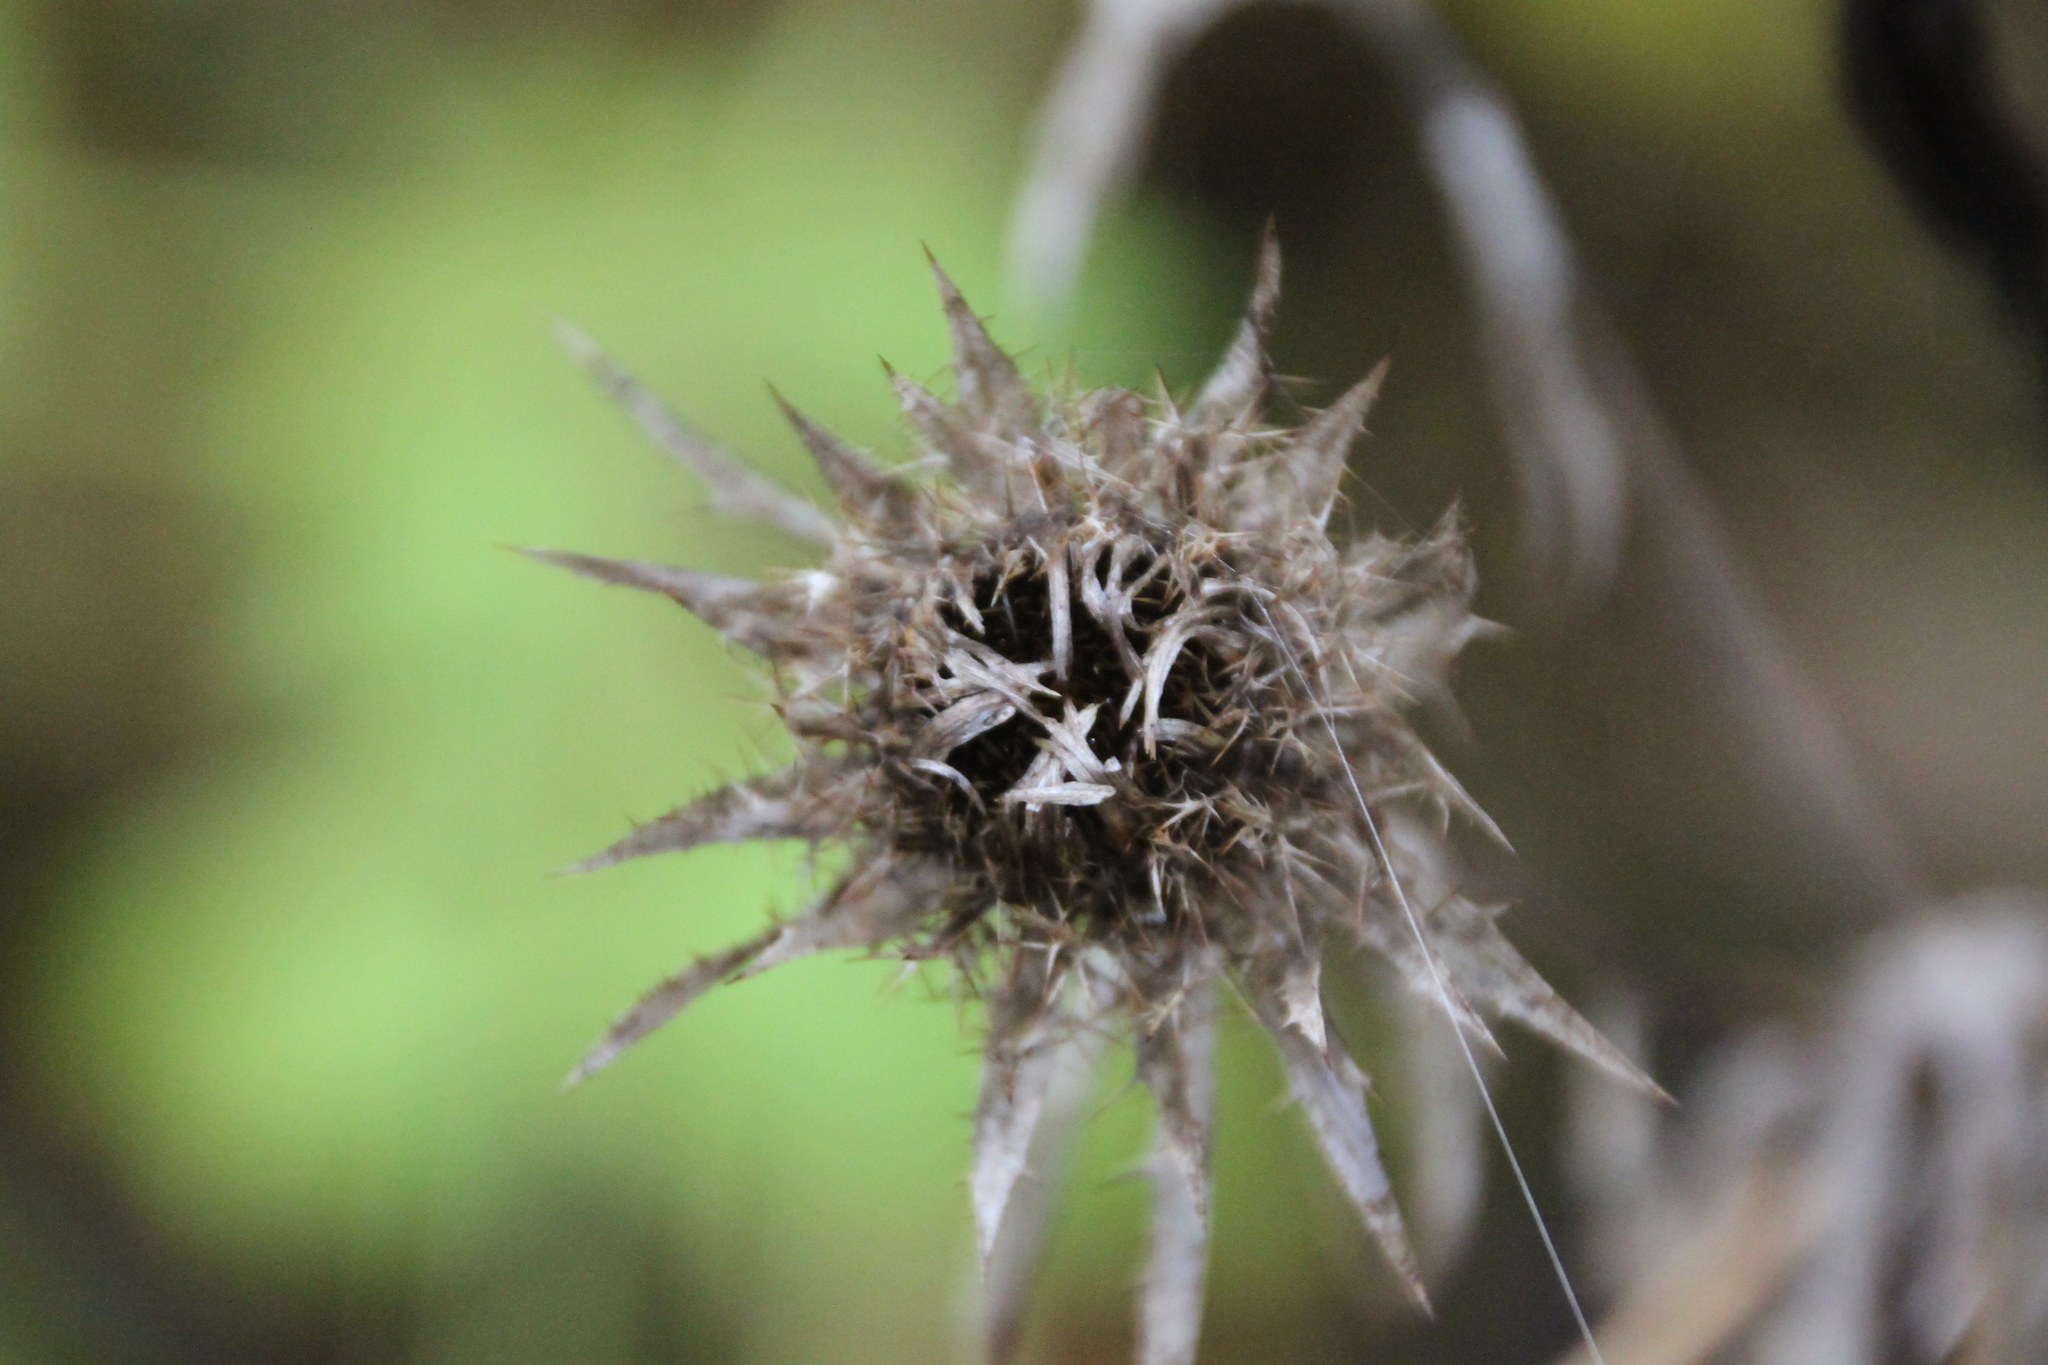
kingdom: Plantae
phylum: Tracheophyta
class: Magnoliopsida
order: Asterales
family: Asteraceae
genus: Carlina
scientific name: Carlina biebersteinii
